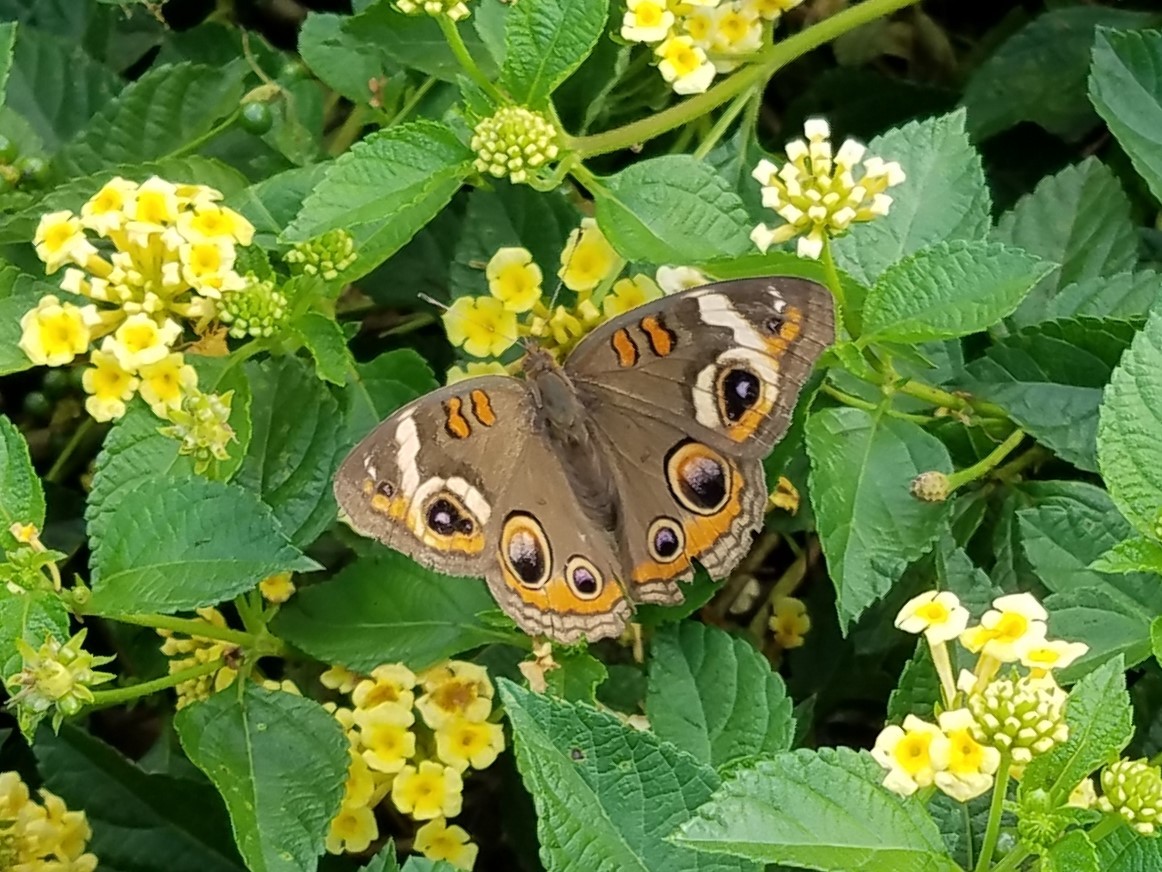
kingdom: Animalia
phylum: Arthropoda
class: Insecta
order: Lepidoptera
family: Nymphalidae
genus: Junonia
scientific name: Junonia coenia
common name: Common buckeye
